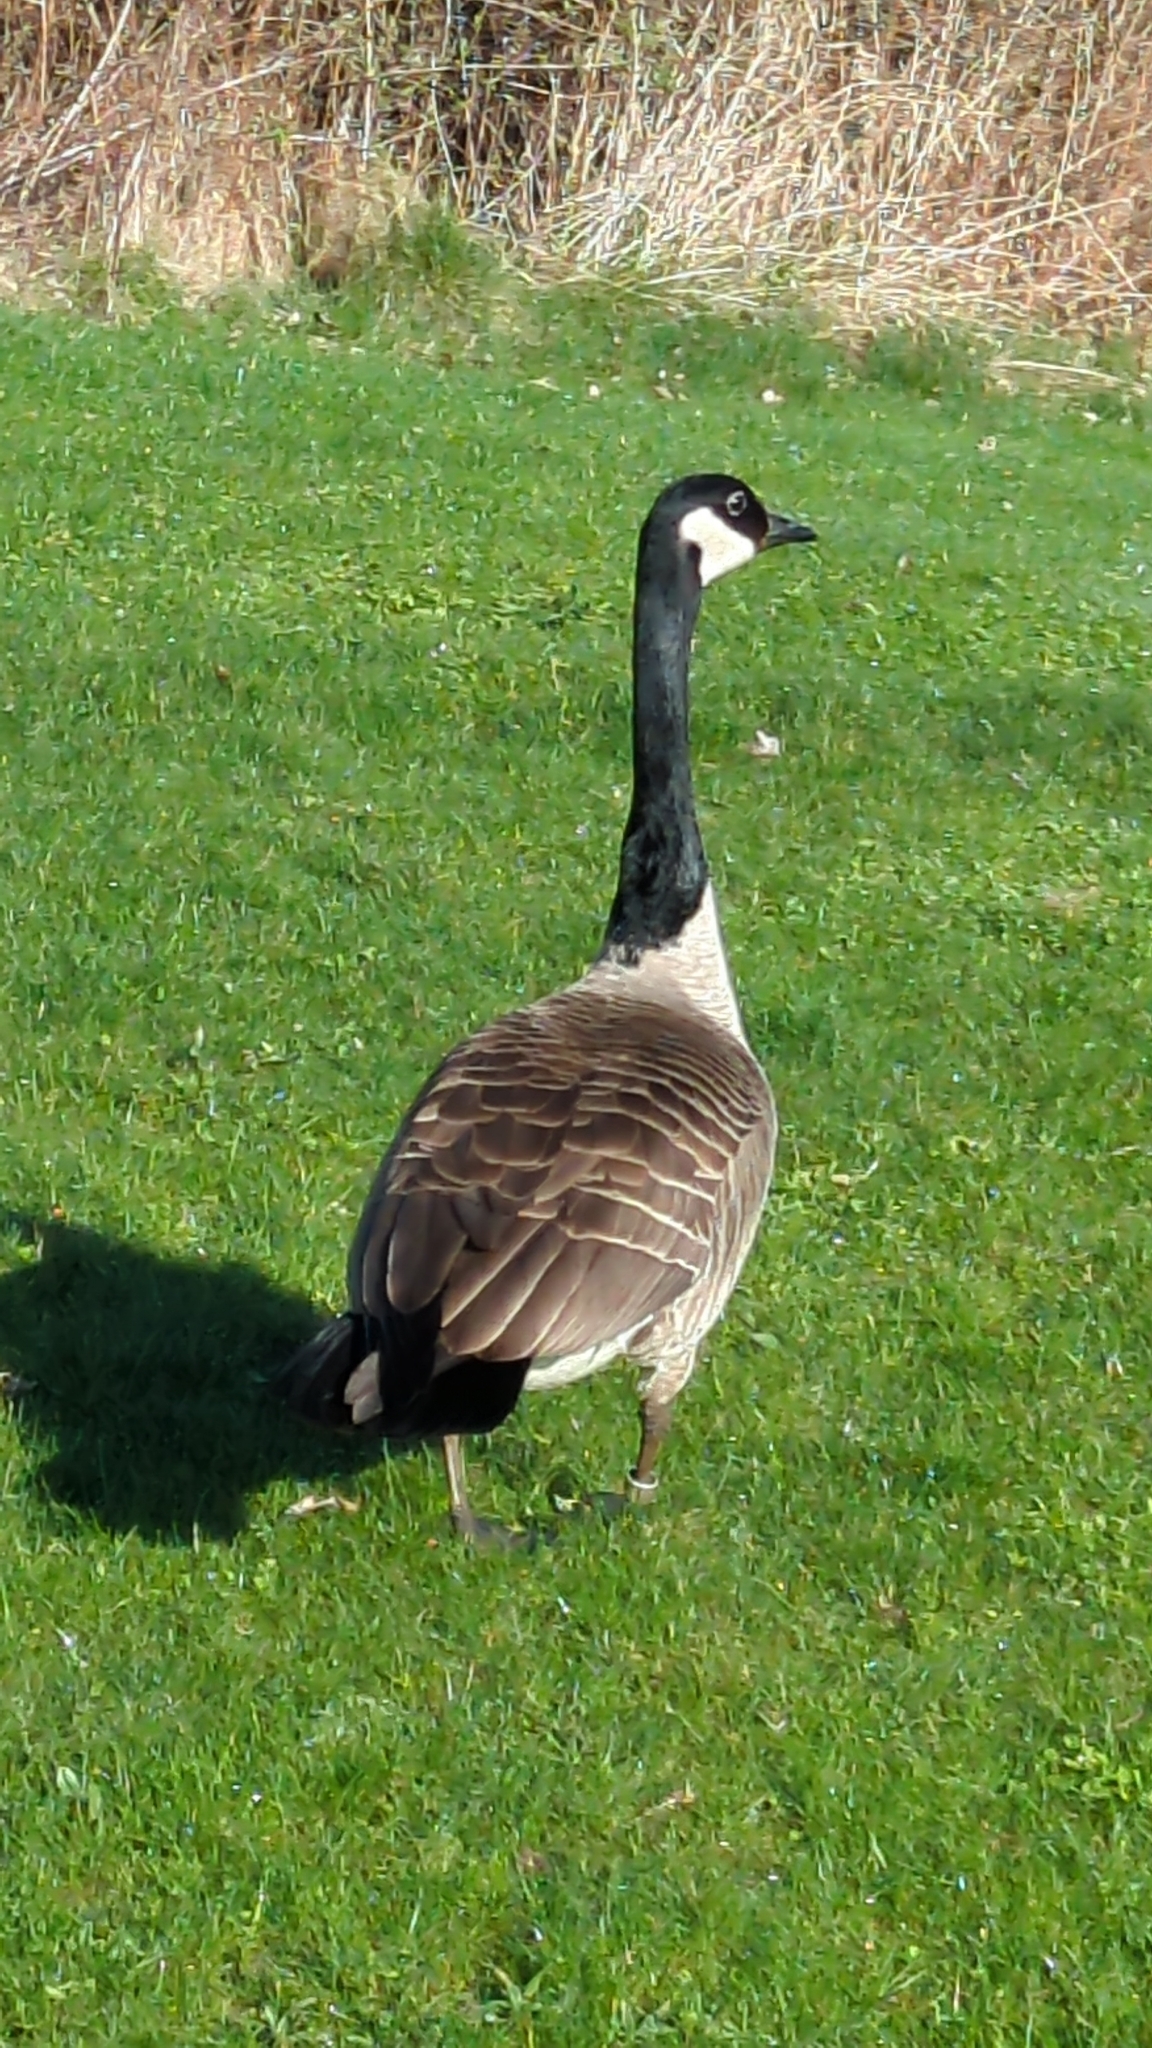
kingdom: Animalia
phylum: Chordata
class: Aves
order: Anseriformes
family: Anatidae
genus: Branta
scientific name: Branta canadensis
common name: Canada goose
